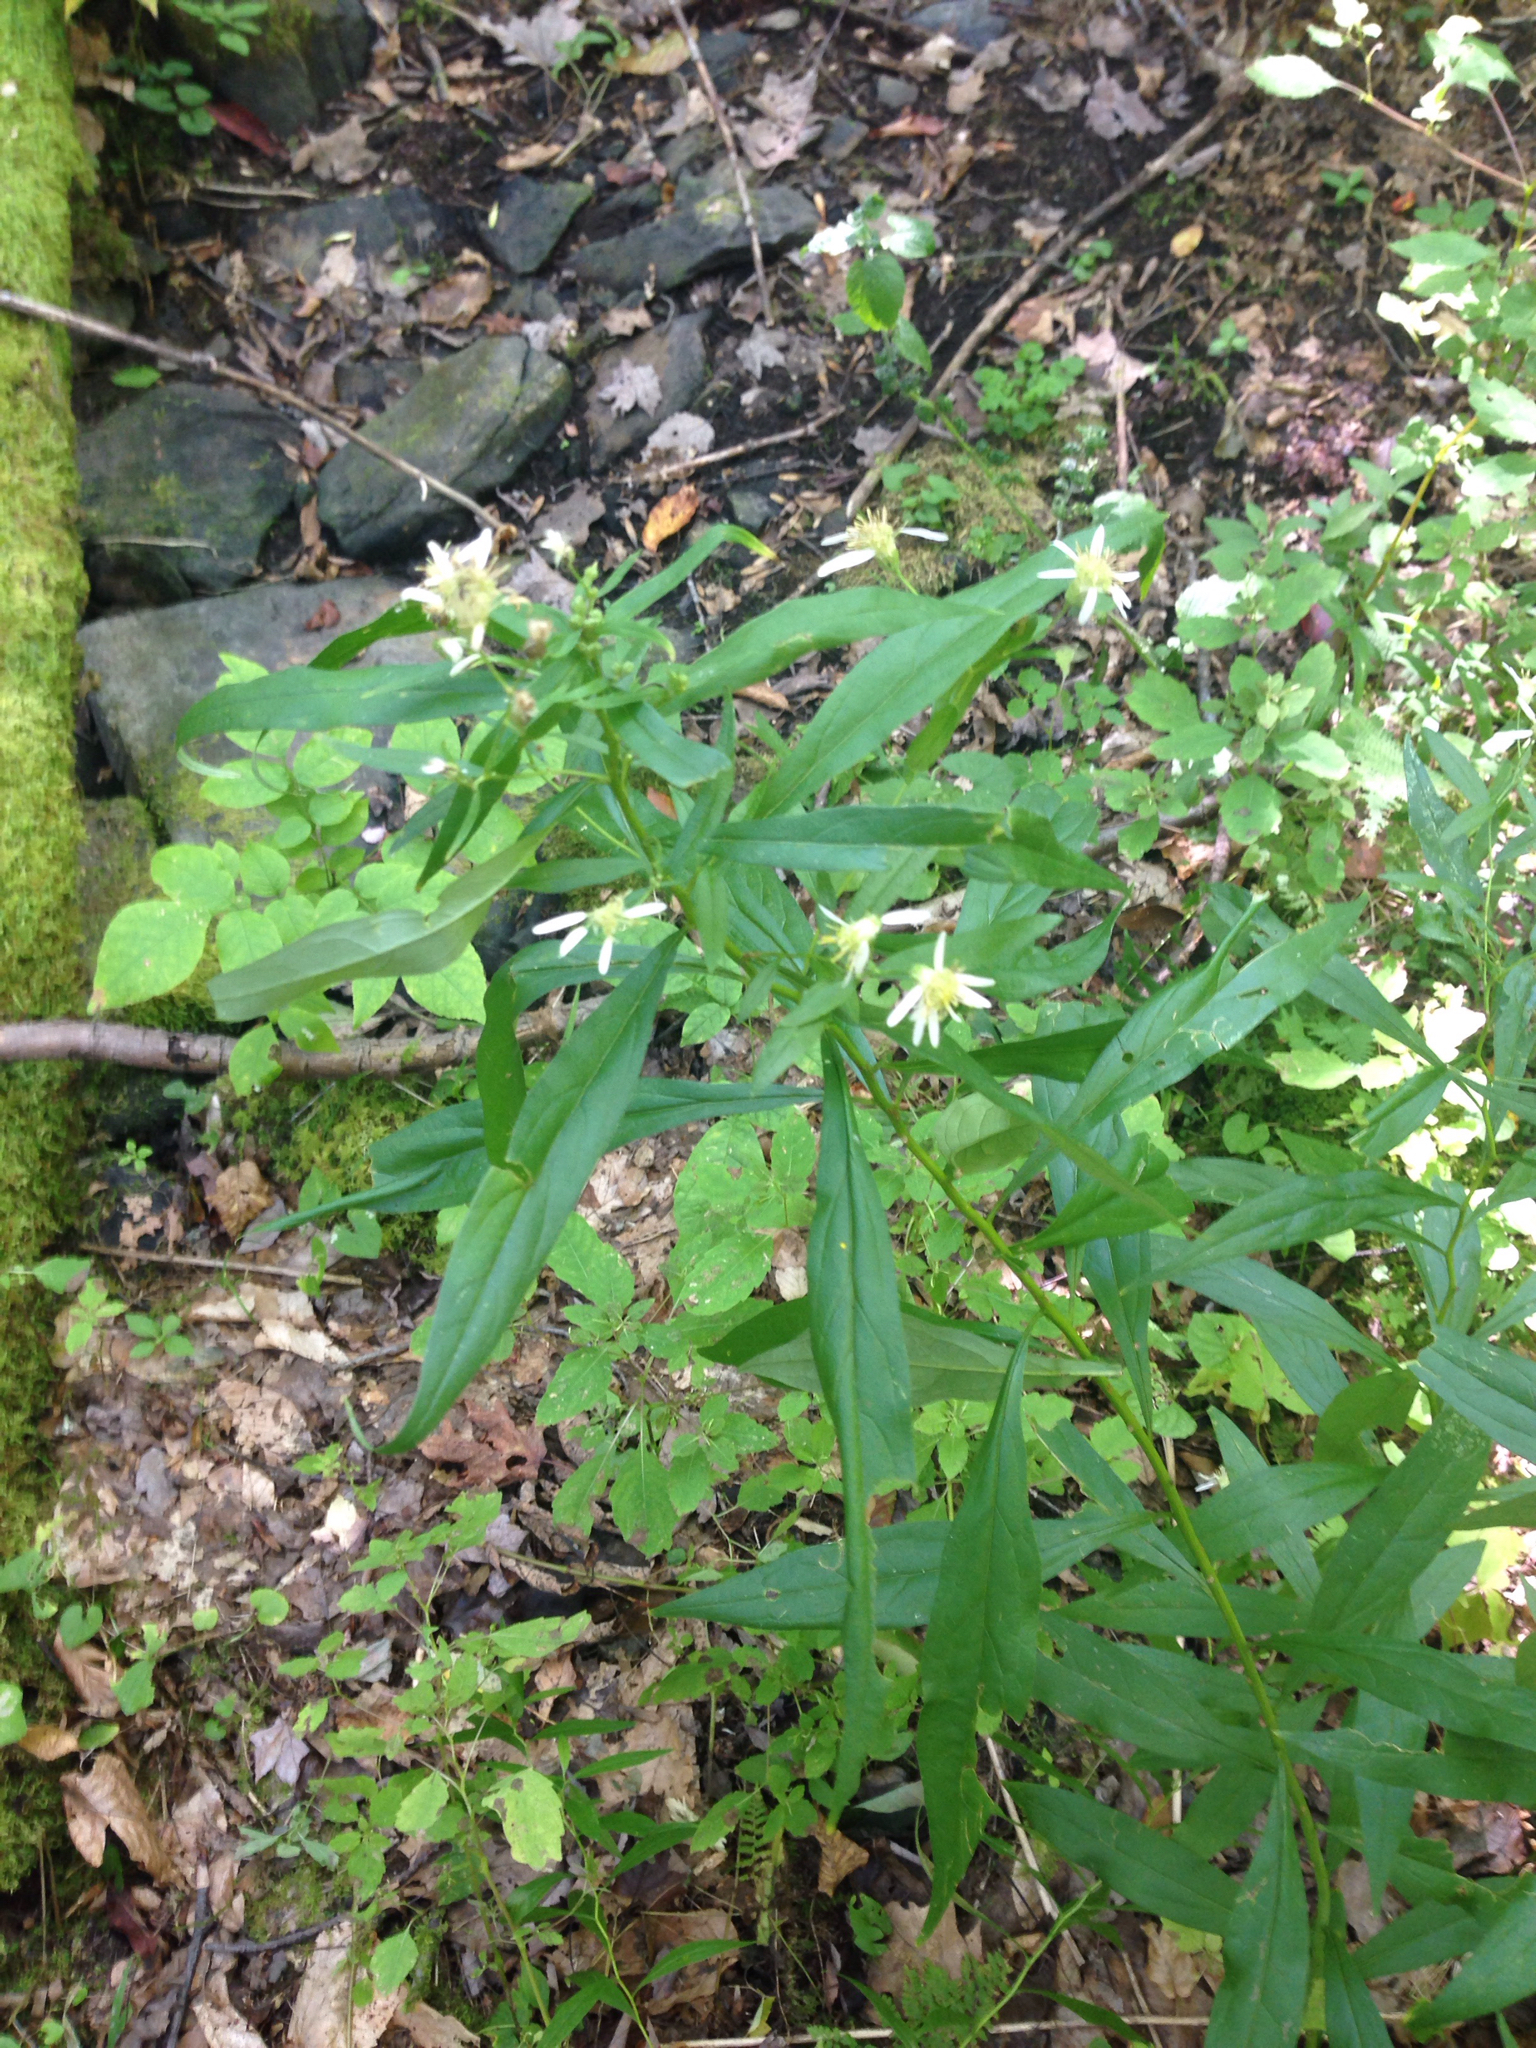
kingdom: Plantae
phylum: Tracheophyta
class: Magnoliopsida
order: Asterales
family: Asteraceae
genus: Doellingeria
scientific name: Doellingeria umbellata
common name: Flat-top white aster
